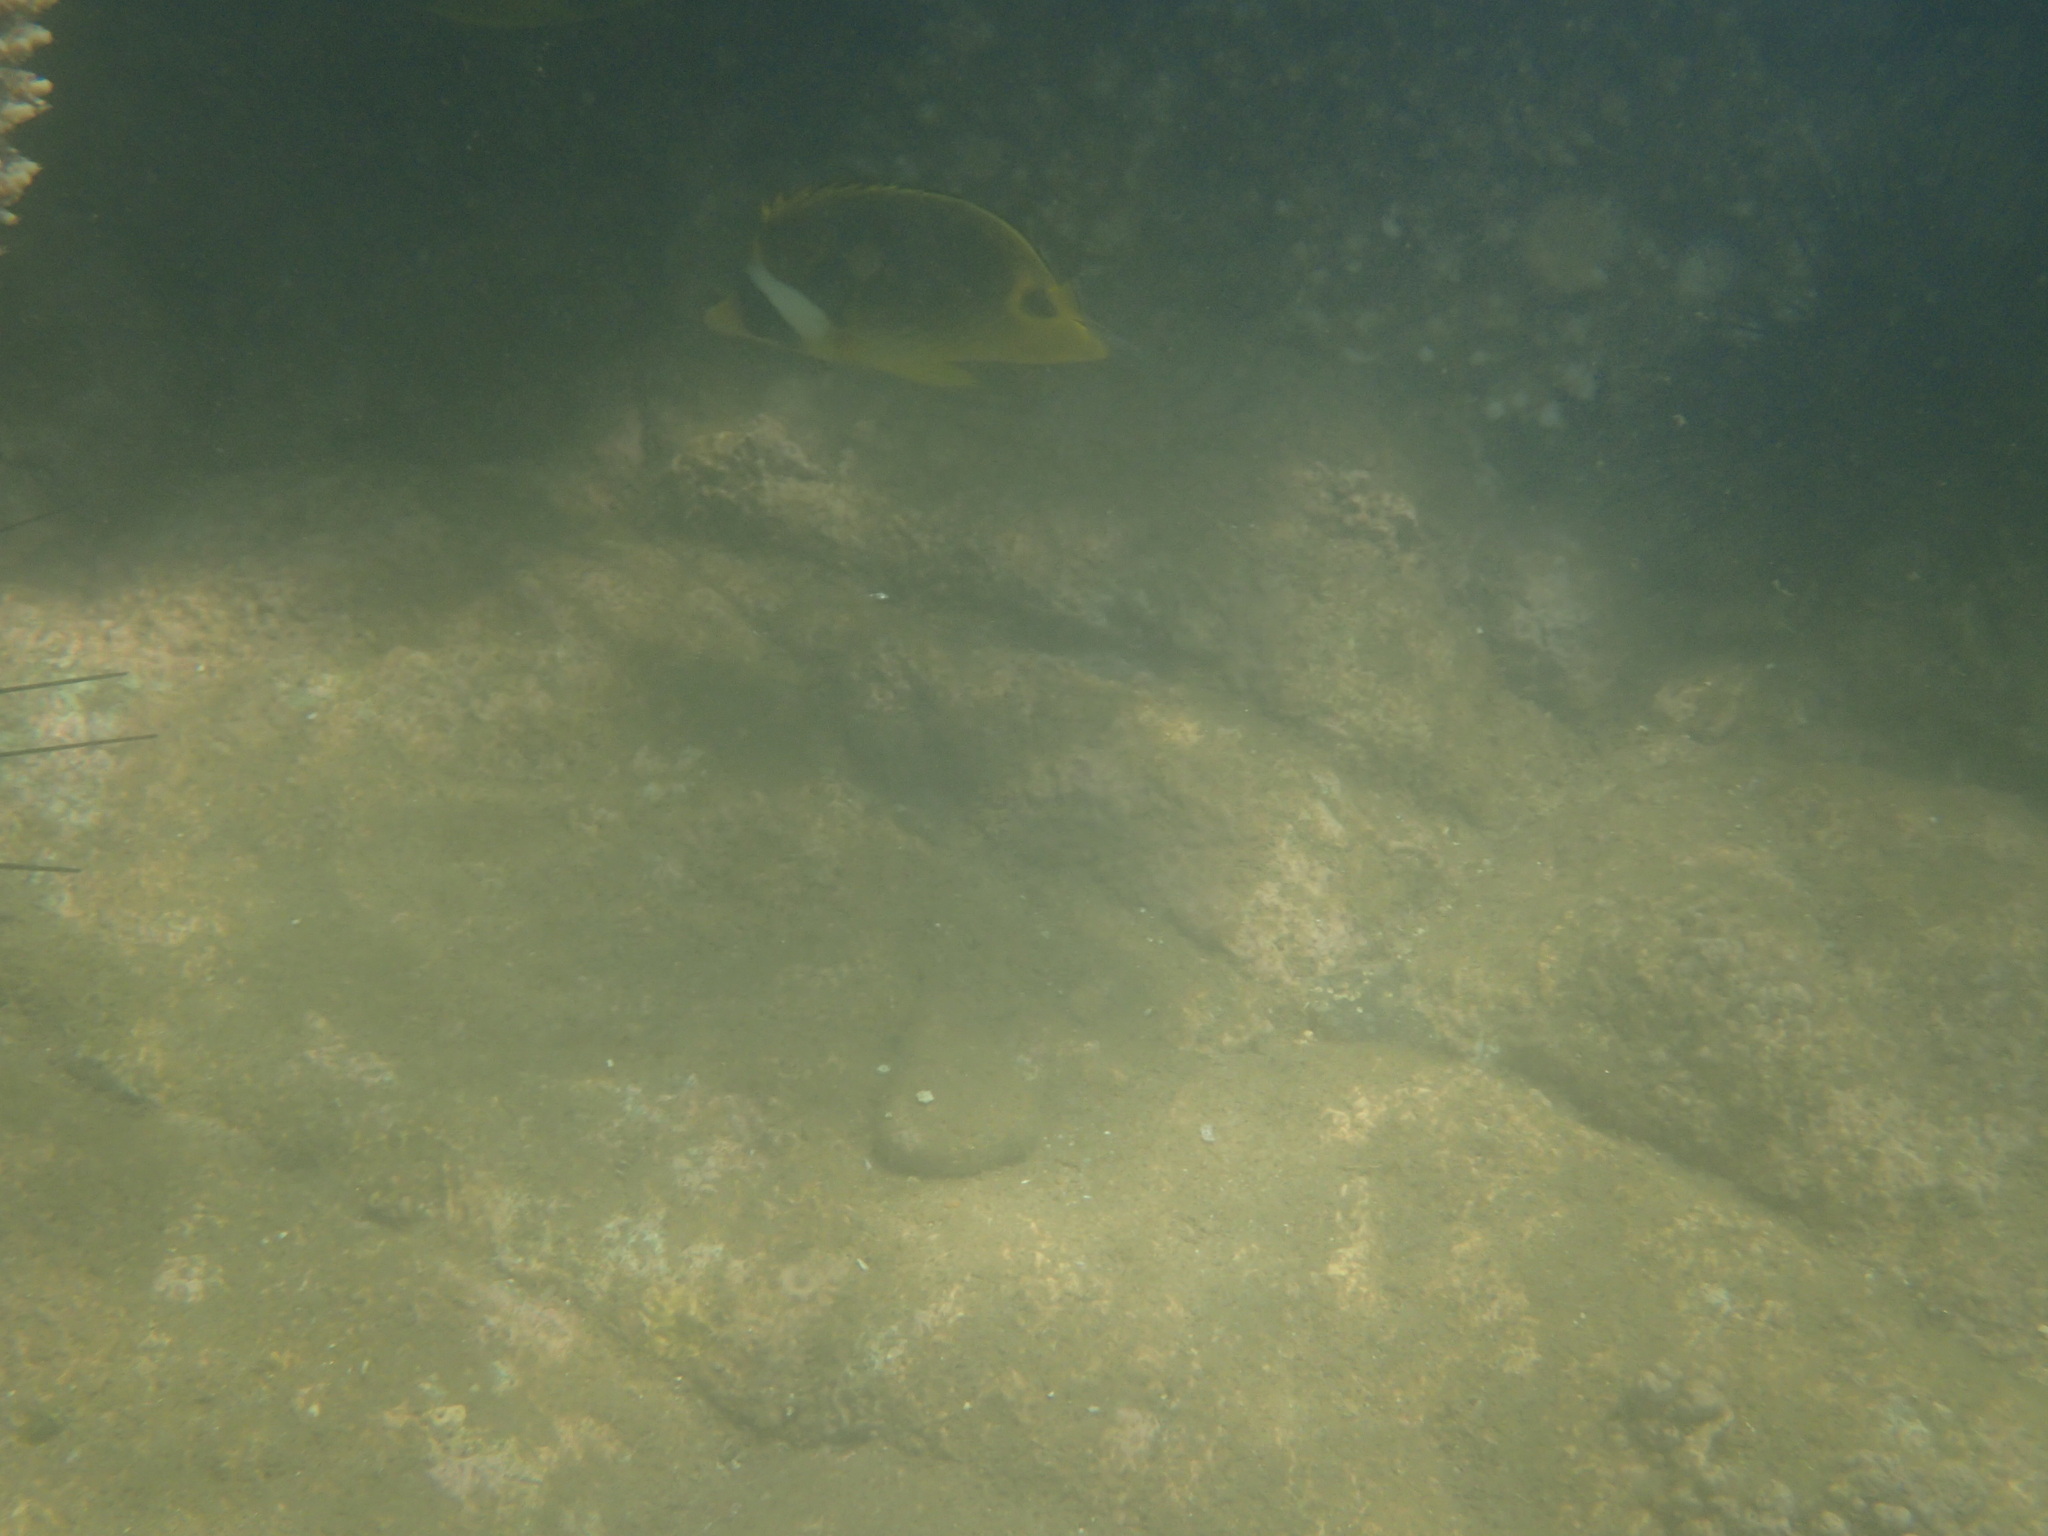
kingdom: Animalia
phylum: Chordata
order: Perciformes
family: Chaetodontidae
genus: Chaetodon
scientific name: Chaetodon lunula
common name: Raccoon butterflyfish
